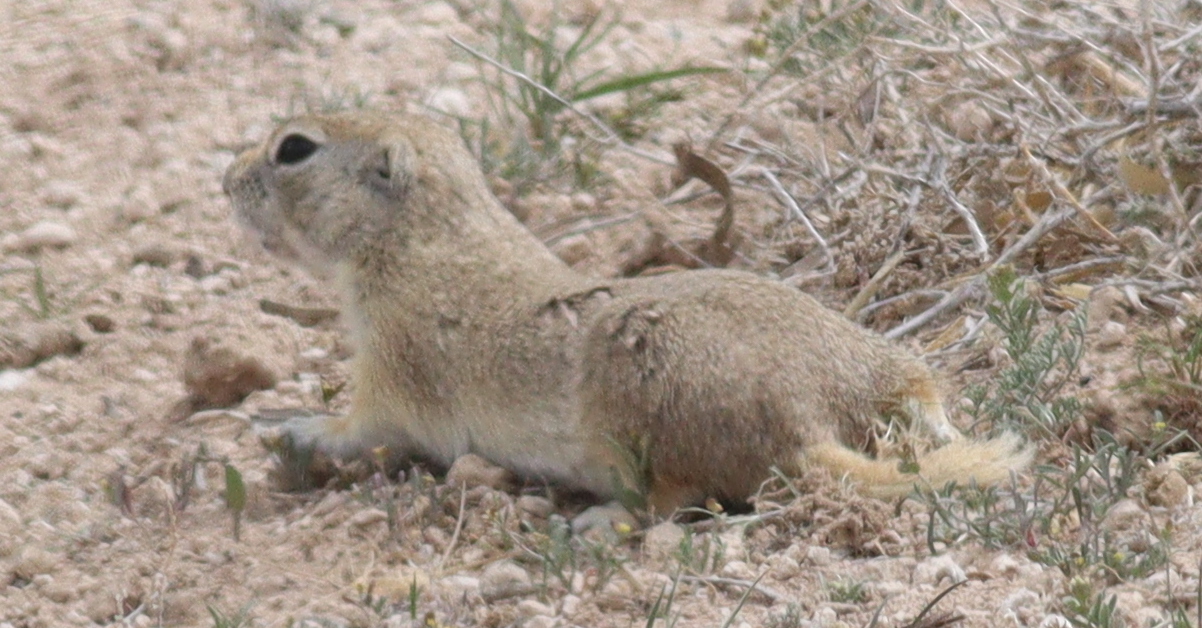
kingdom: Animalia
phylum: Chordata
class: Mammalia
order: Rodentia
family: Sciuridae
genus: Spermophilus
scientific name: Spermophilus xanthoprymnus
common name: Asia minor ground squirrel
